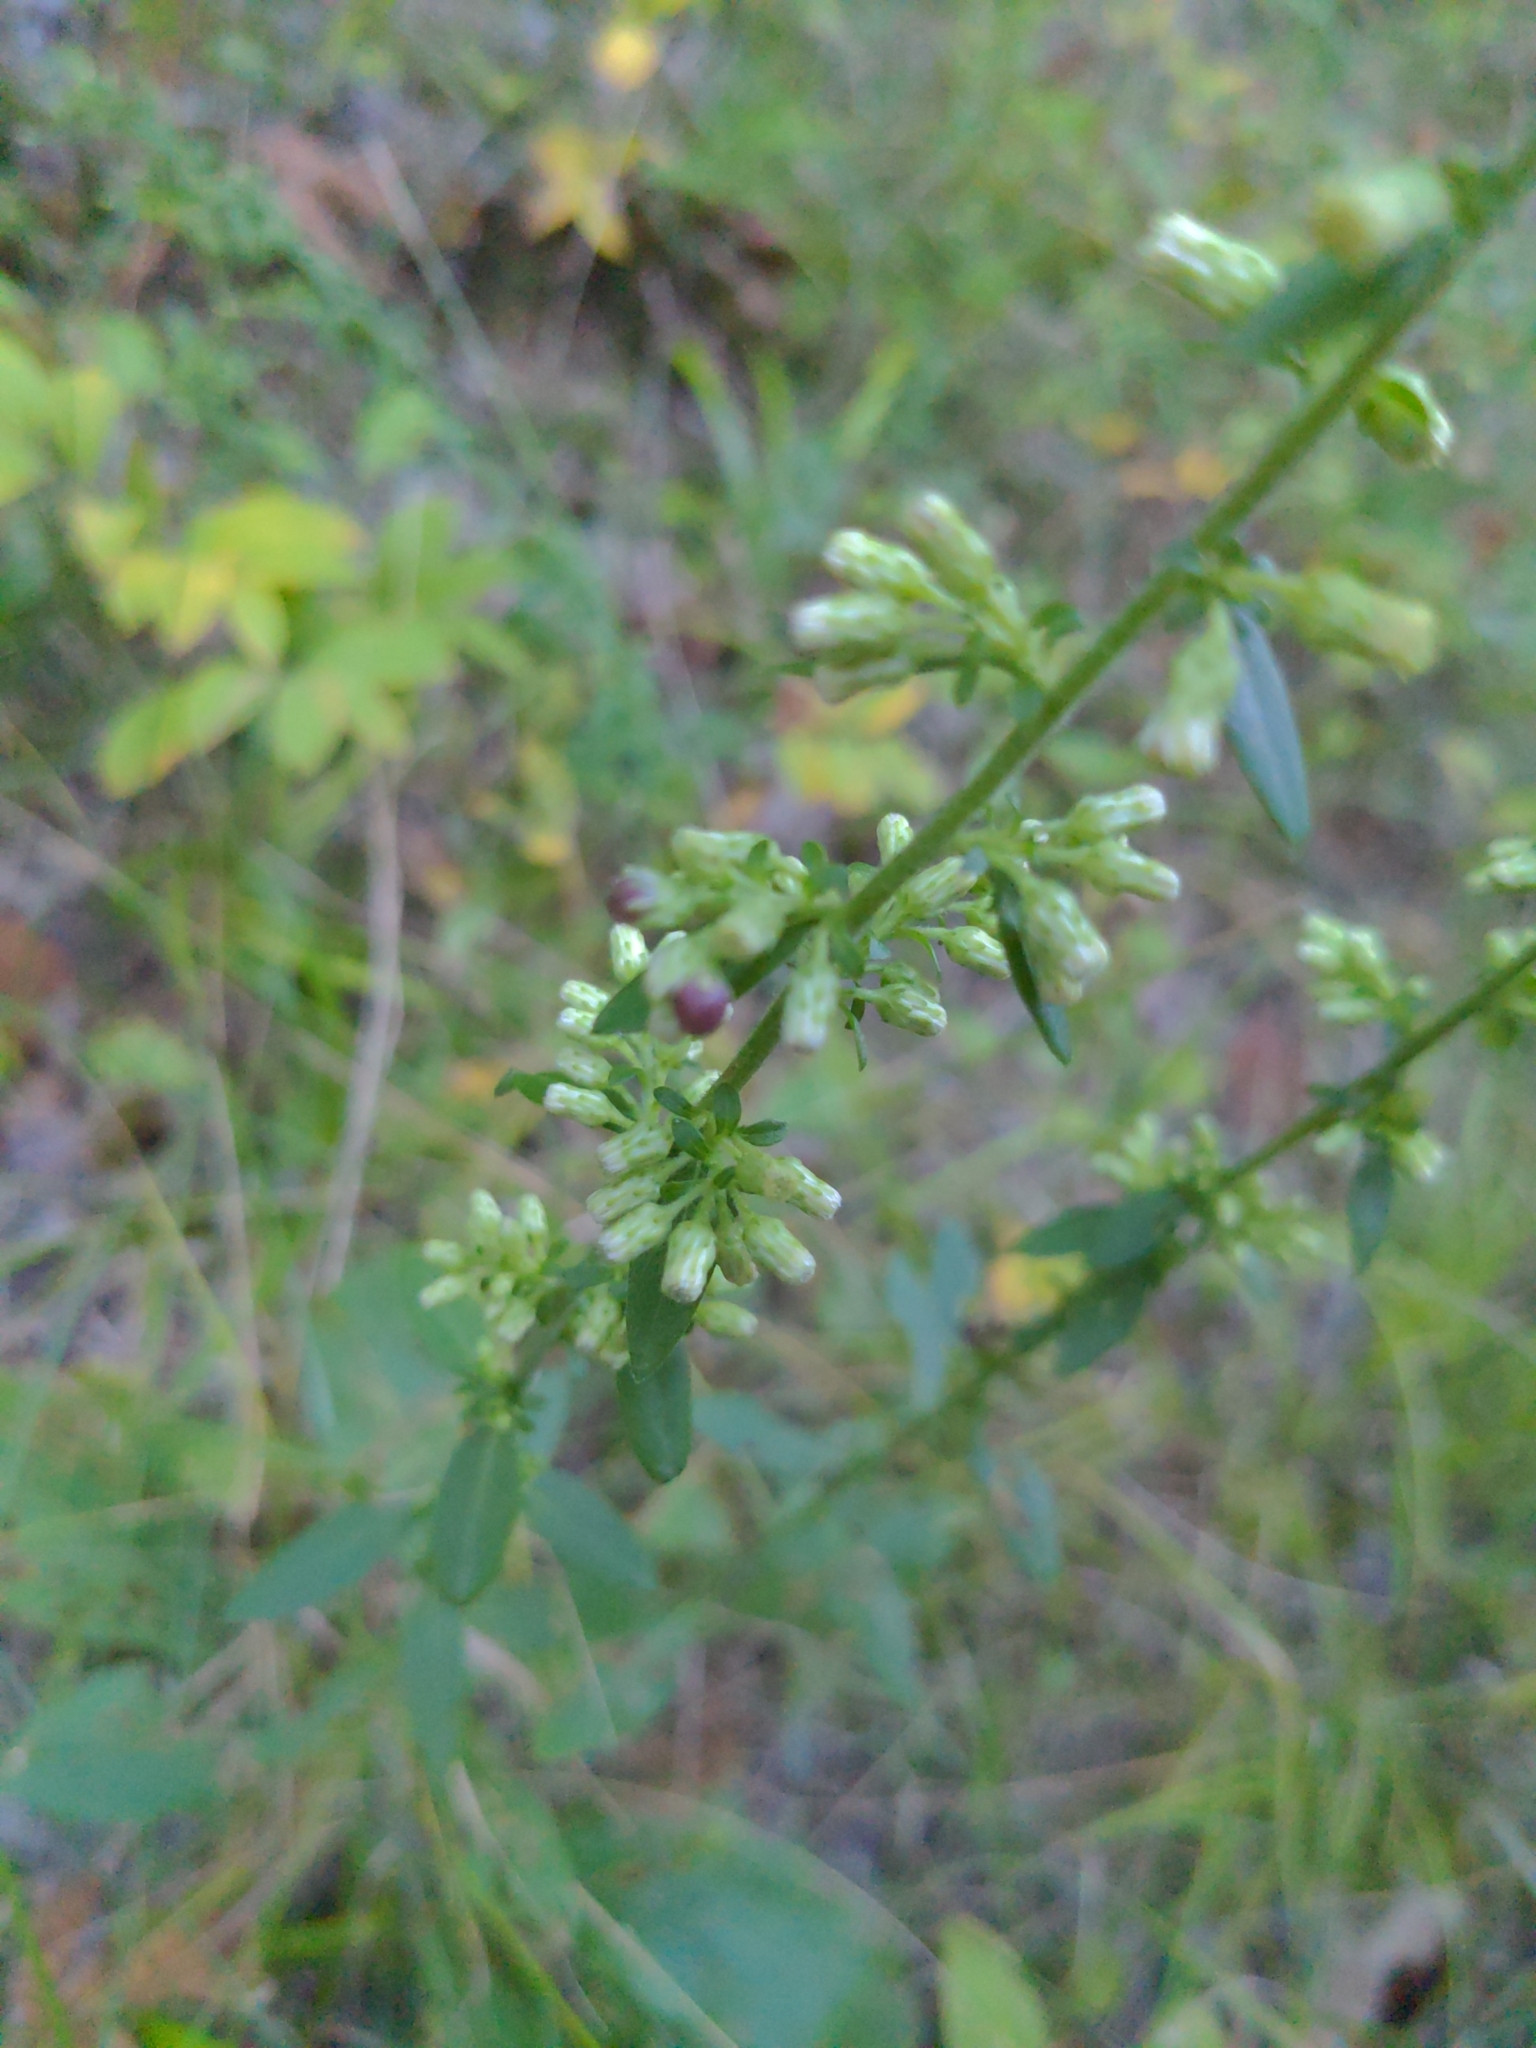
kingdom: Plantae
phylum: Tracheophyta
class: Magnoliopsida
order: Asterales
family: Asteraceae
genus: Solidago
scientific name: Solidago bicolor
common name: Silverrod
